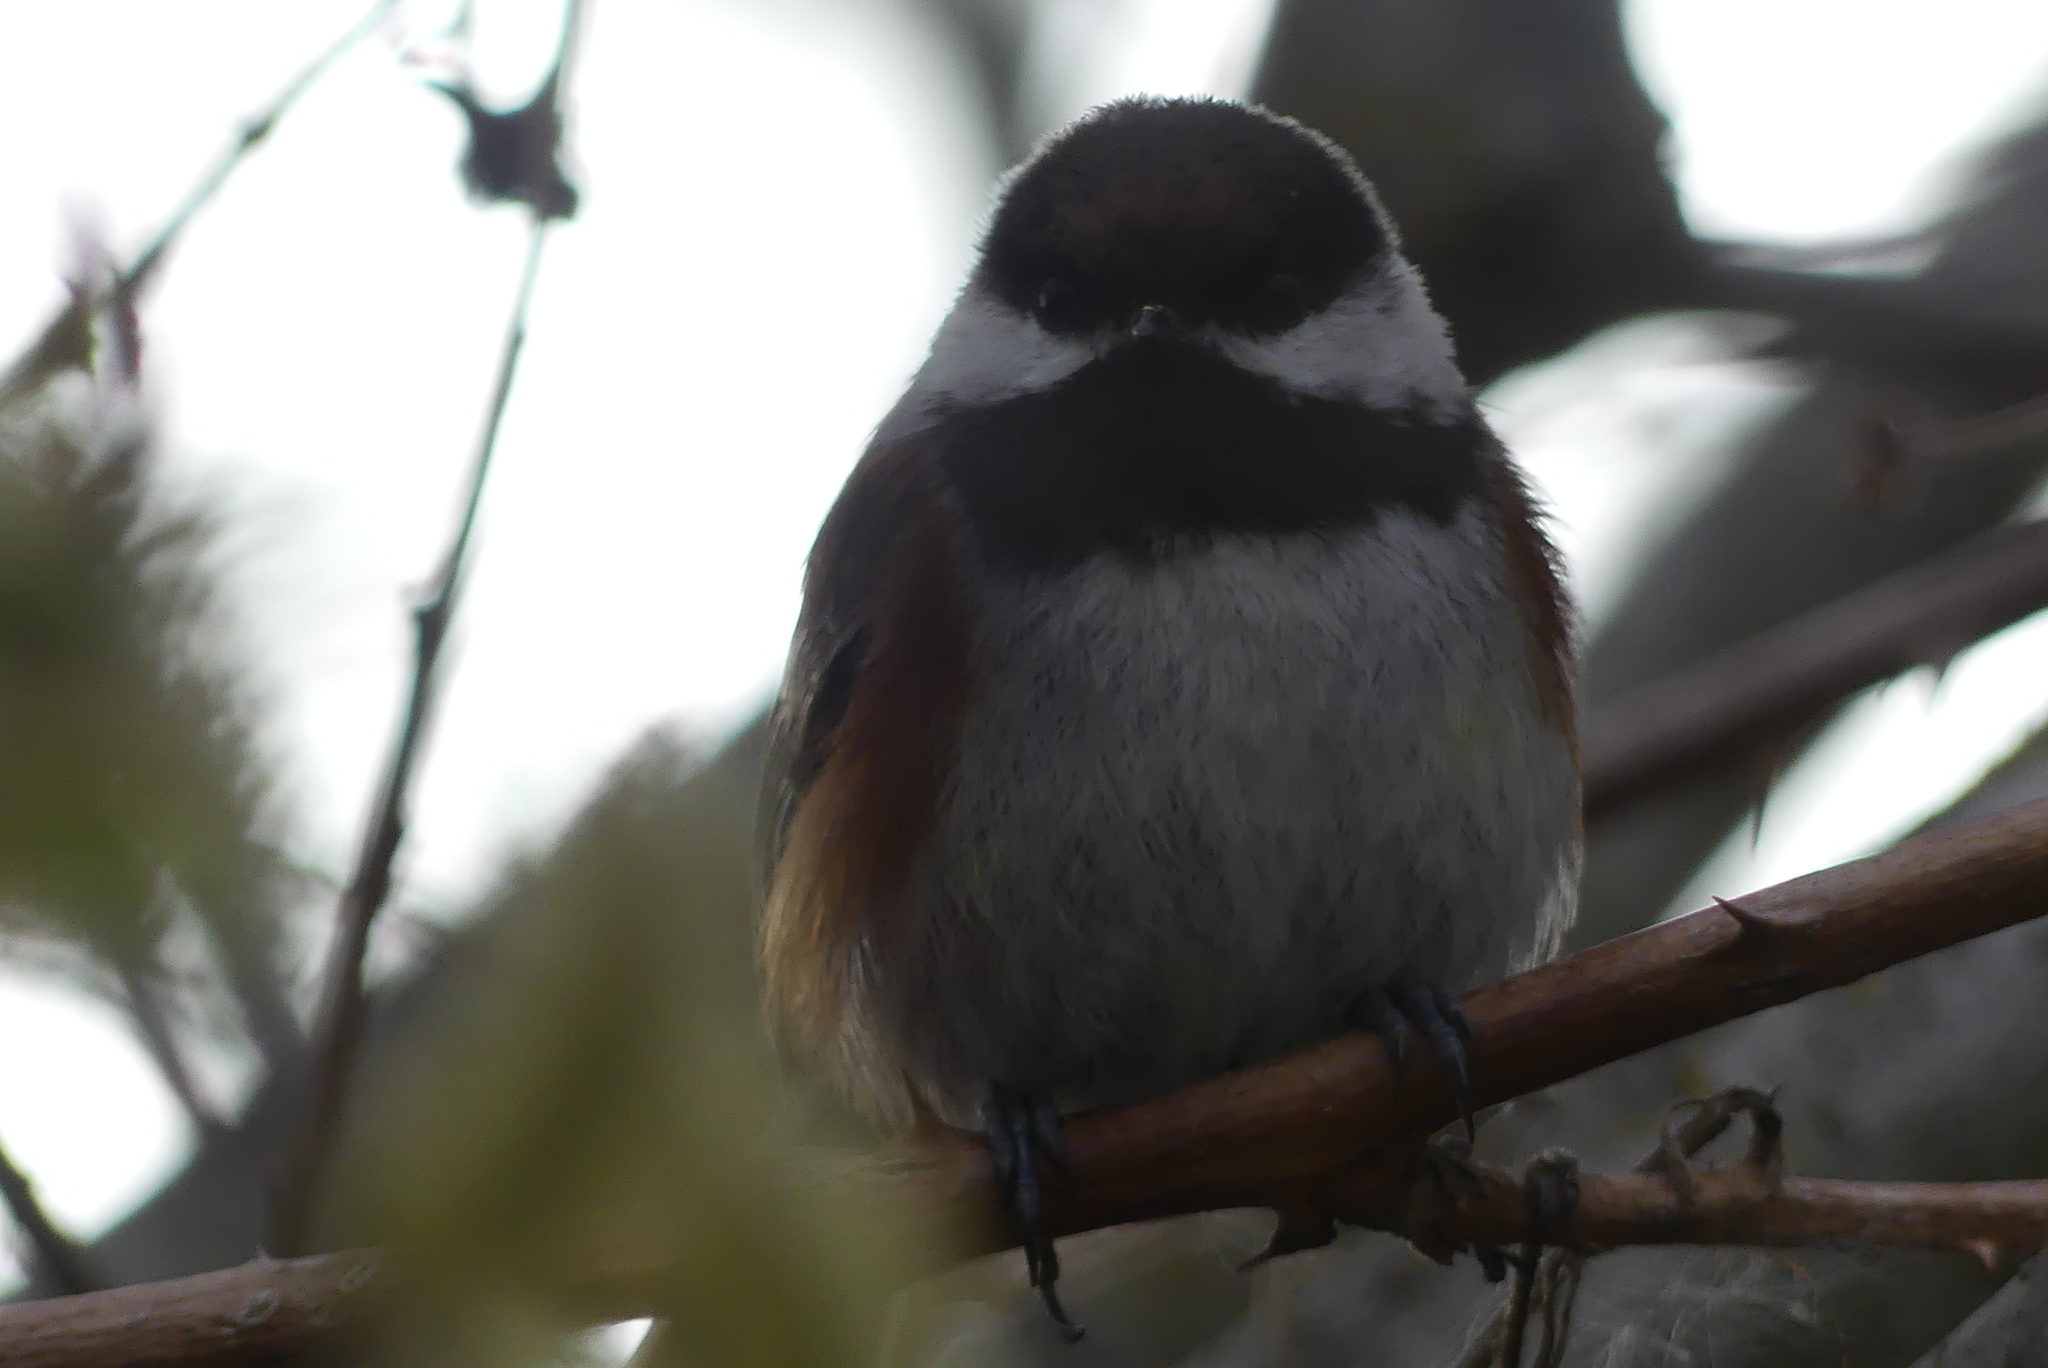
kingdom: Animalia
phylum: Chordata
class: Aves
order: Passeriformes
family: Paridae
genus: Poecile
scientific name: Poecile rufescens
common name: Chestnut-backed chickadee
